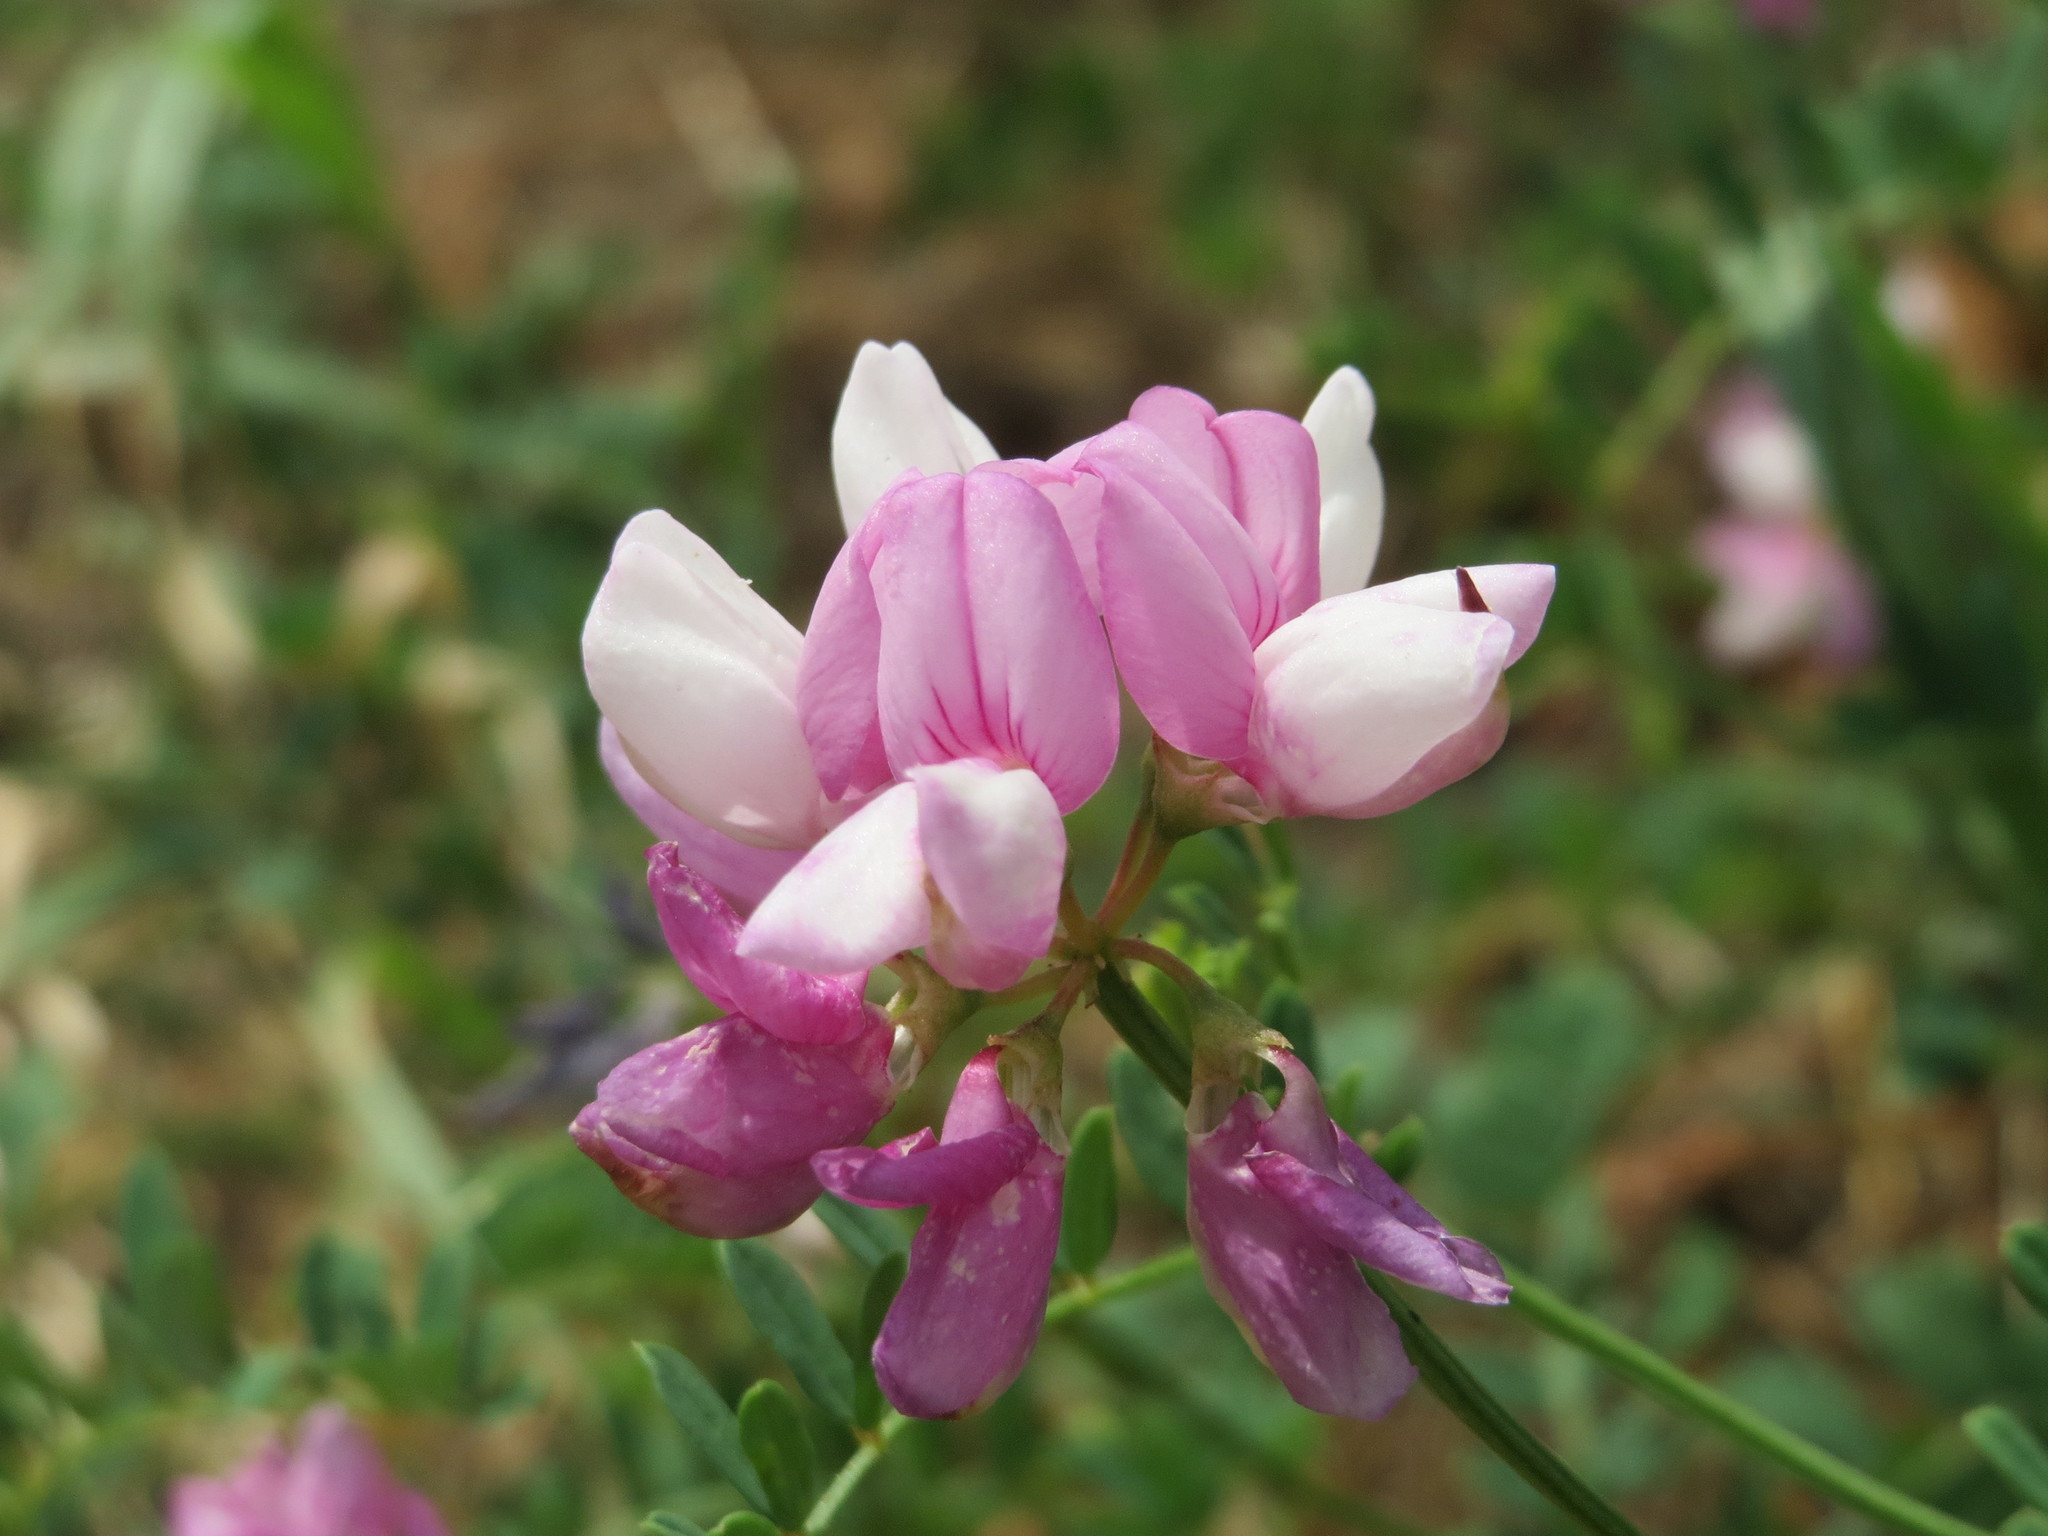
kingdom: Plantae
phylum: Tracheophyta
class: Magnoliopsida
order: Fabales
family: Fabaceae
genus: Coronilla
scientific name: Coronilla varia
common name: Crownvetch
